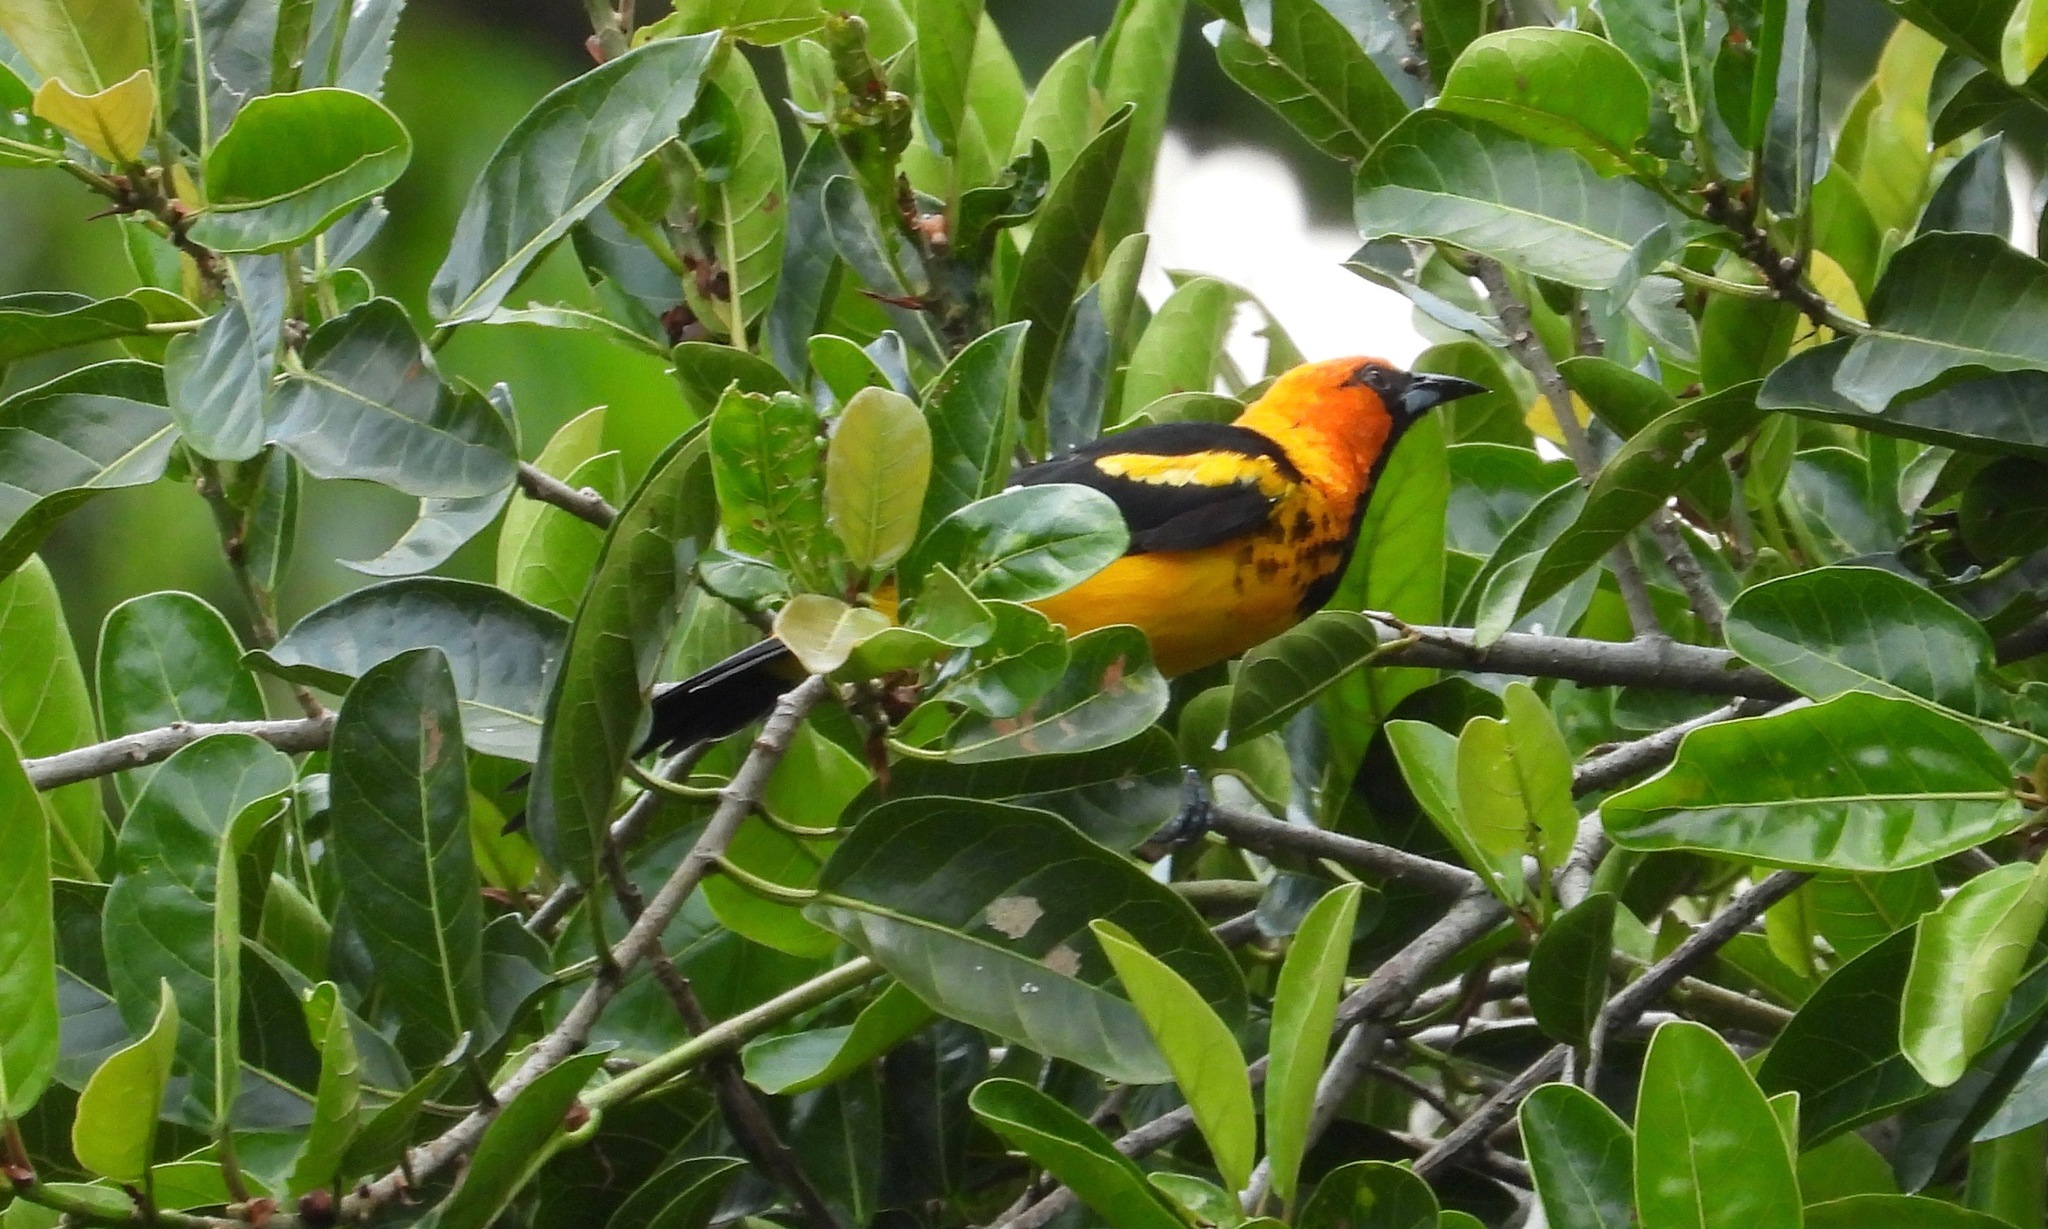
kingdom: Animalia
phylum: Chordata
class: Aves
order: Passeriformes
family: Icteridae
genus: Icterus
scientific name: Icterus pectoralis
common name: Spot-breasted oriole
